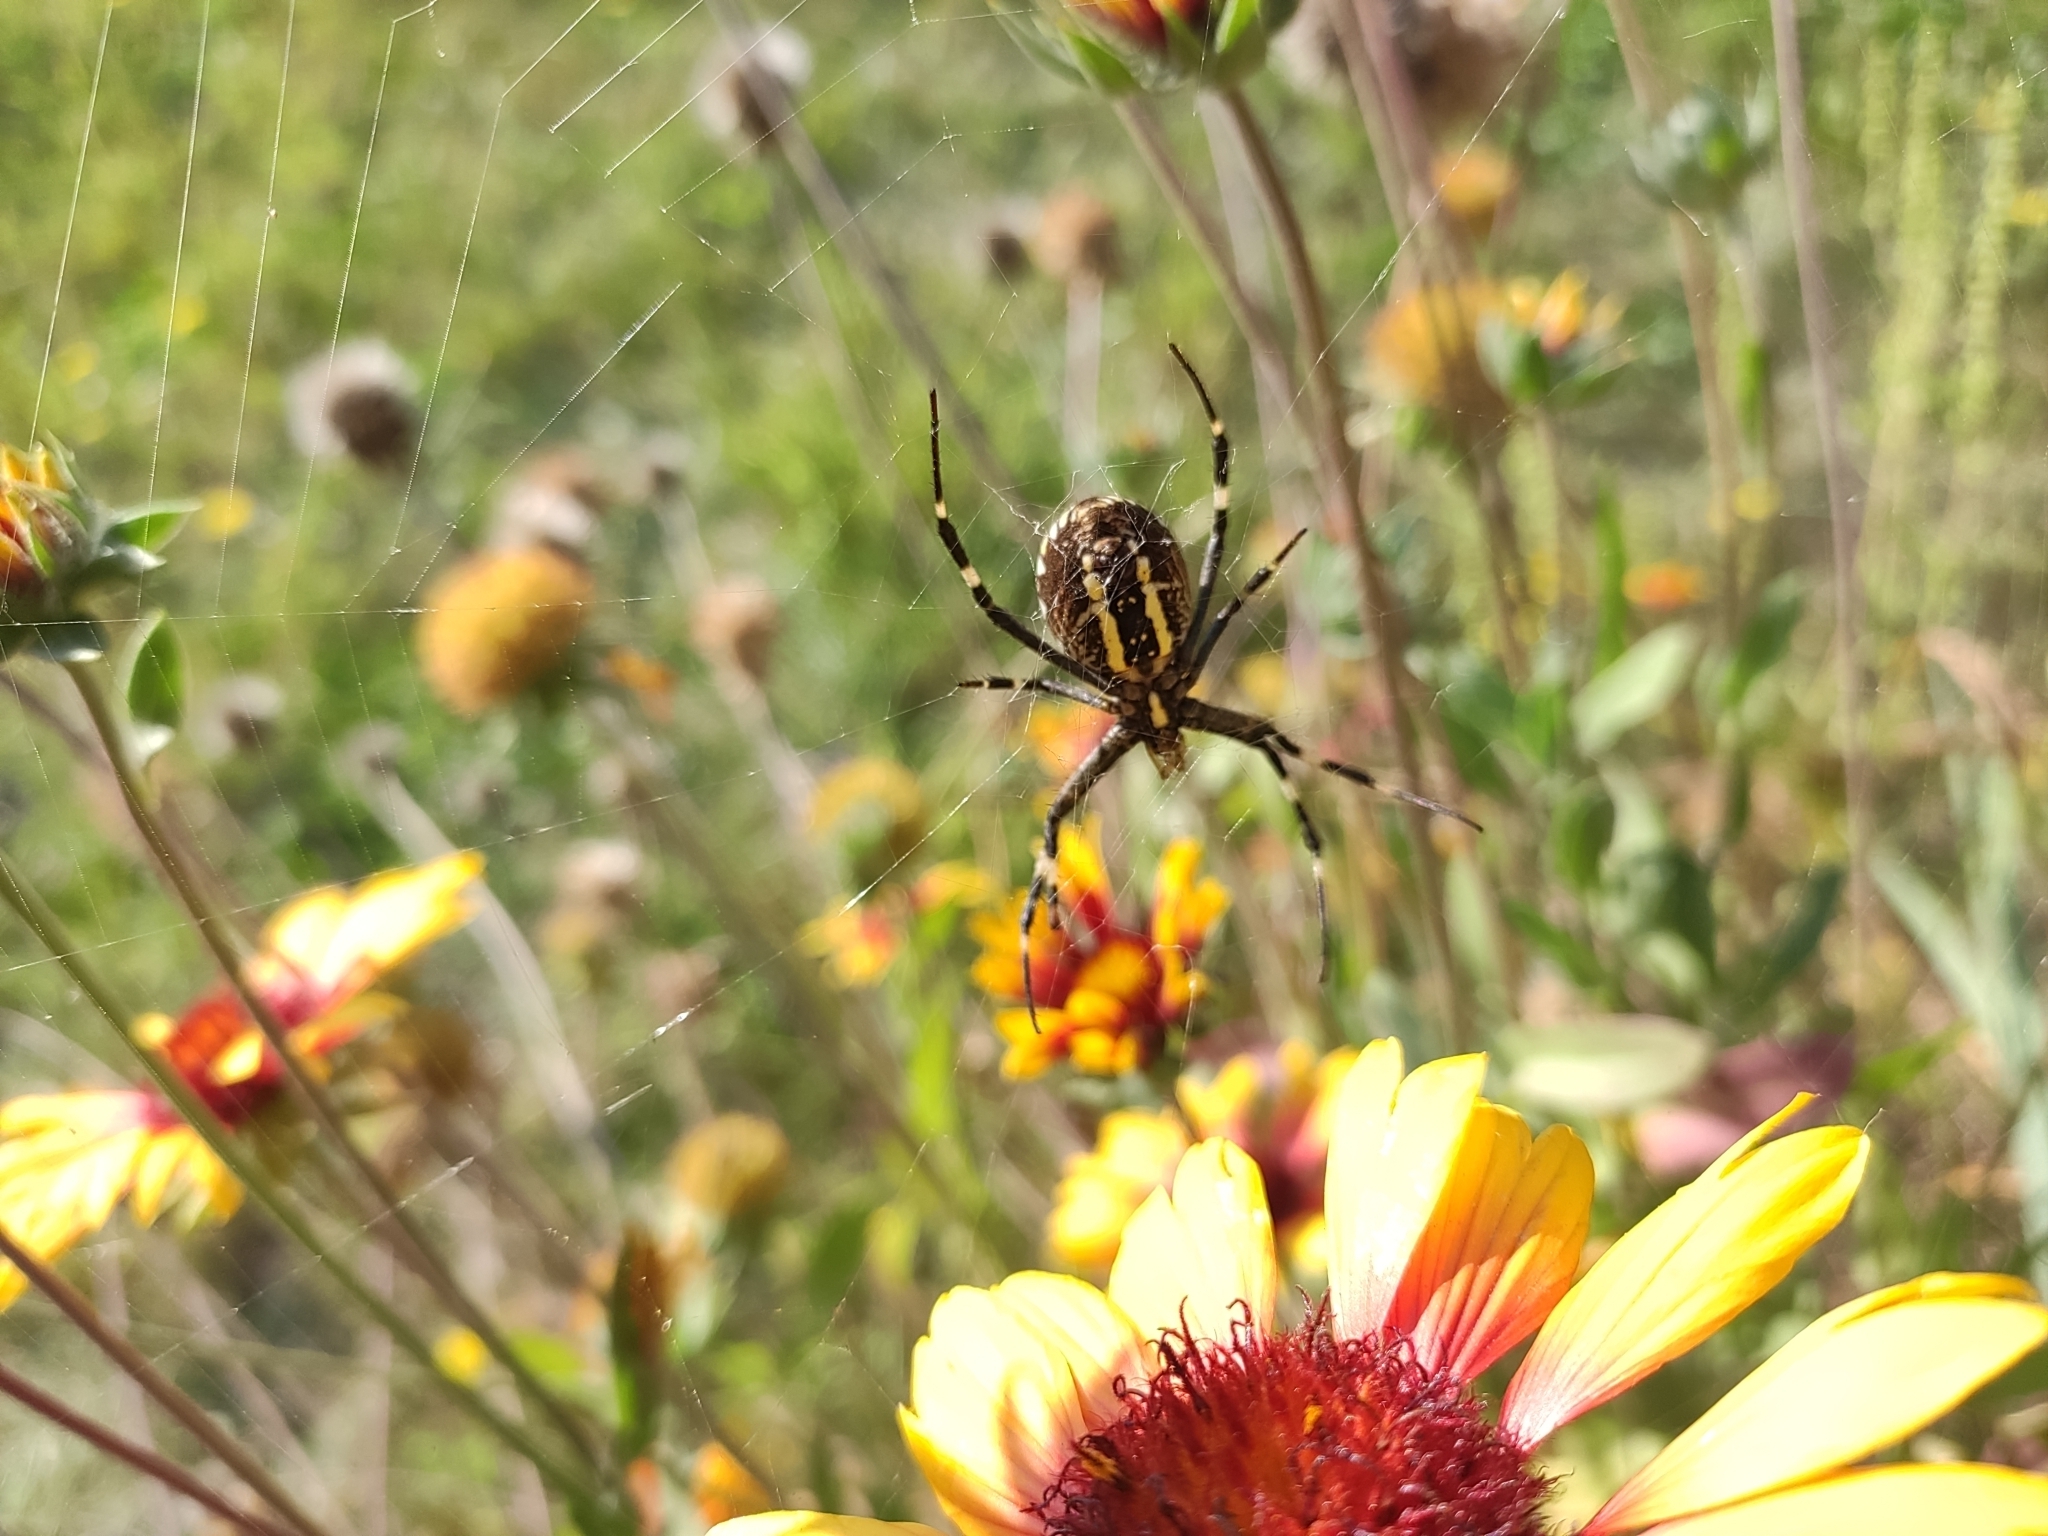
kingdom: Animalia
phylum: Arthropoda
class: Arachnida
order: Araneae
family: Araneidae
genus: Argiope
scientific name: Argiope bruennichi
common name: Wasp spider
